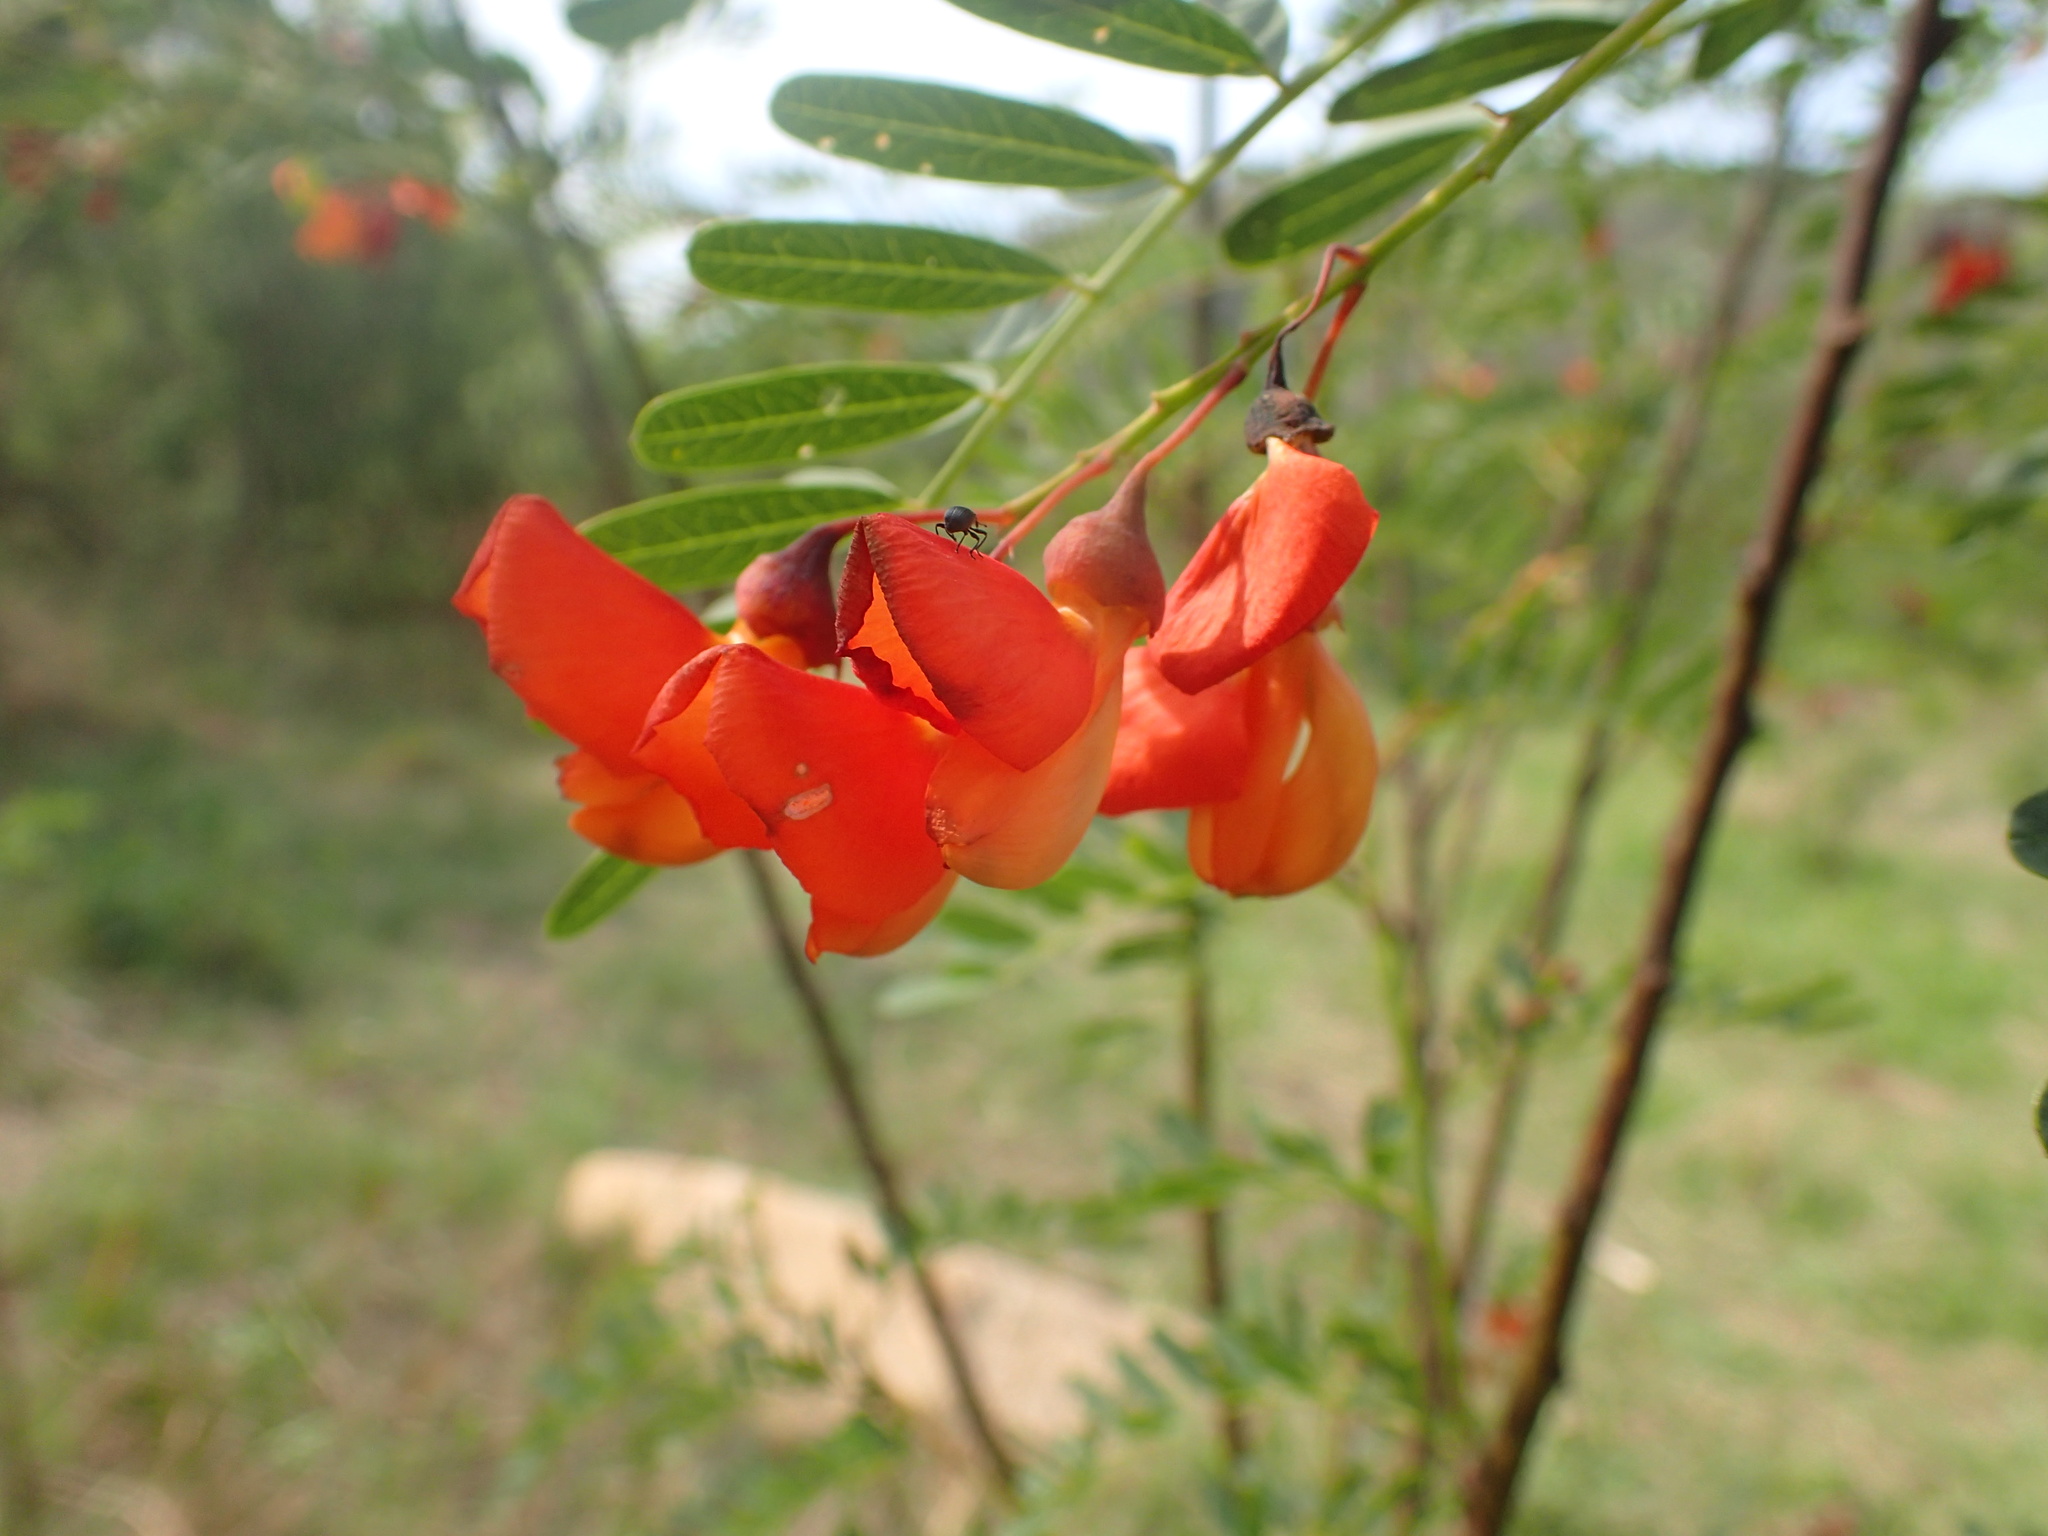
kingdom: Plantae
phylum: Tracheophyta
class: Magnoliopsida
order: Fabales
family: Fabaceae
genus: Sesbania
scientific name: Sesbania punicea
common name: Rattlebox
